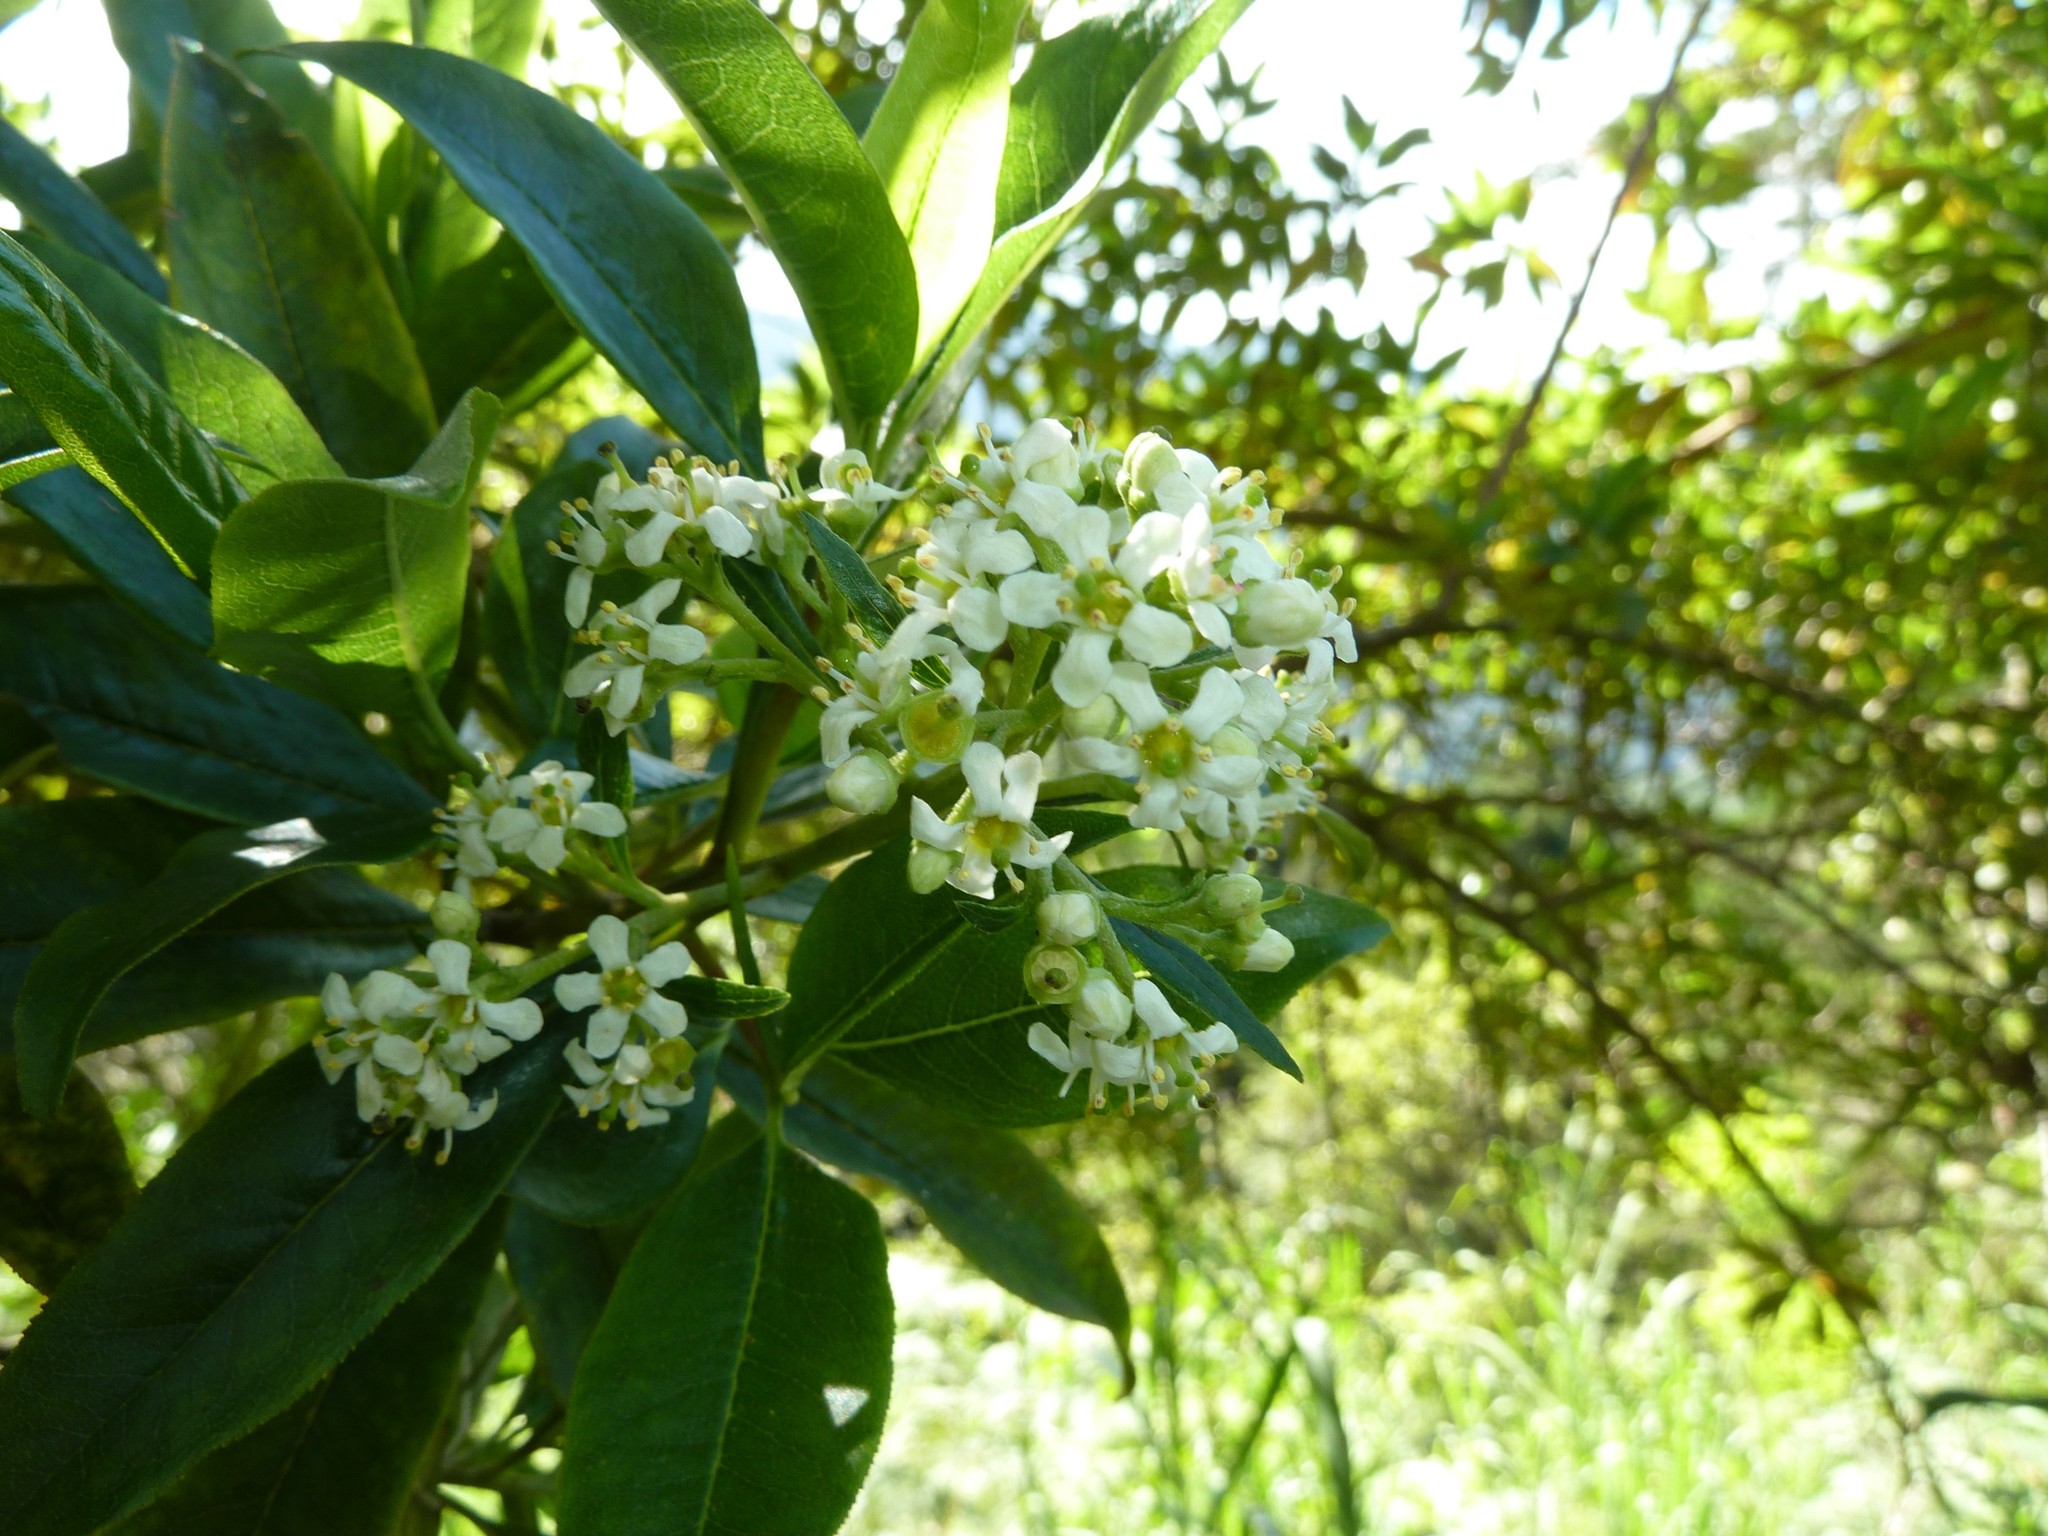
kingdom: Plantae
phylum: Tracheophyta
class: Magnoliopsida
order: Escalloniales
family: Escalloniaceae
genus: Escallonia
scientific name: Escallonia paniculata
